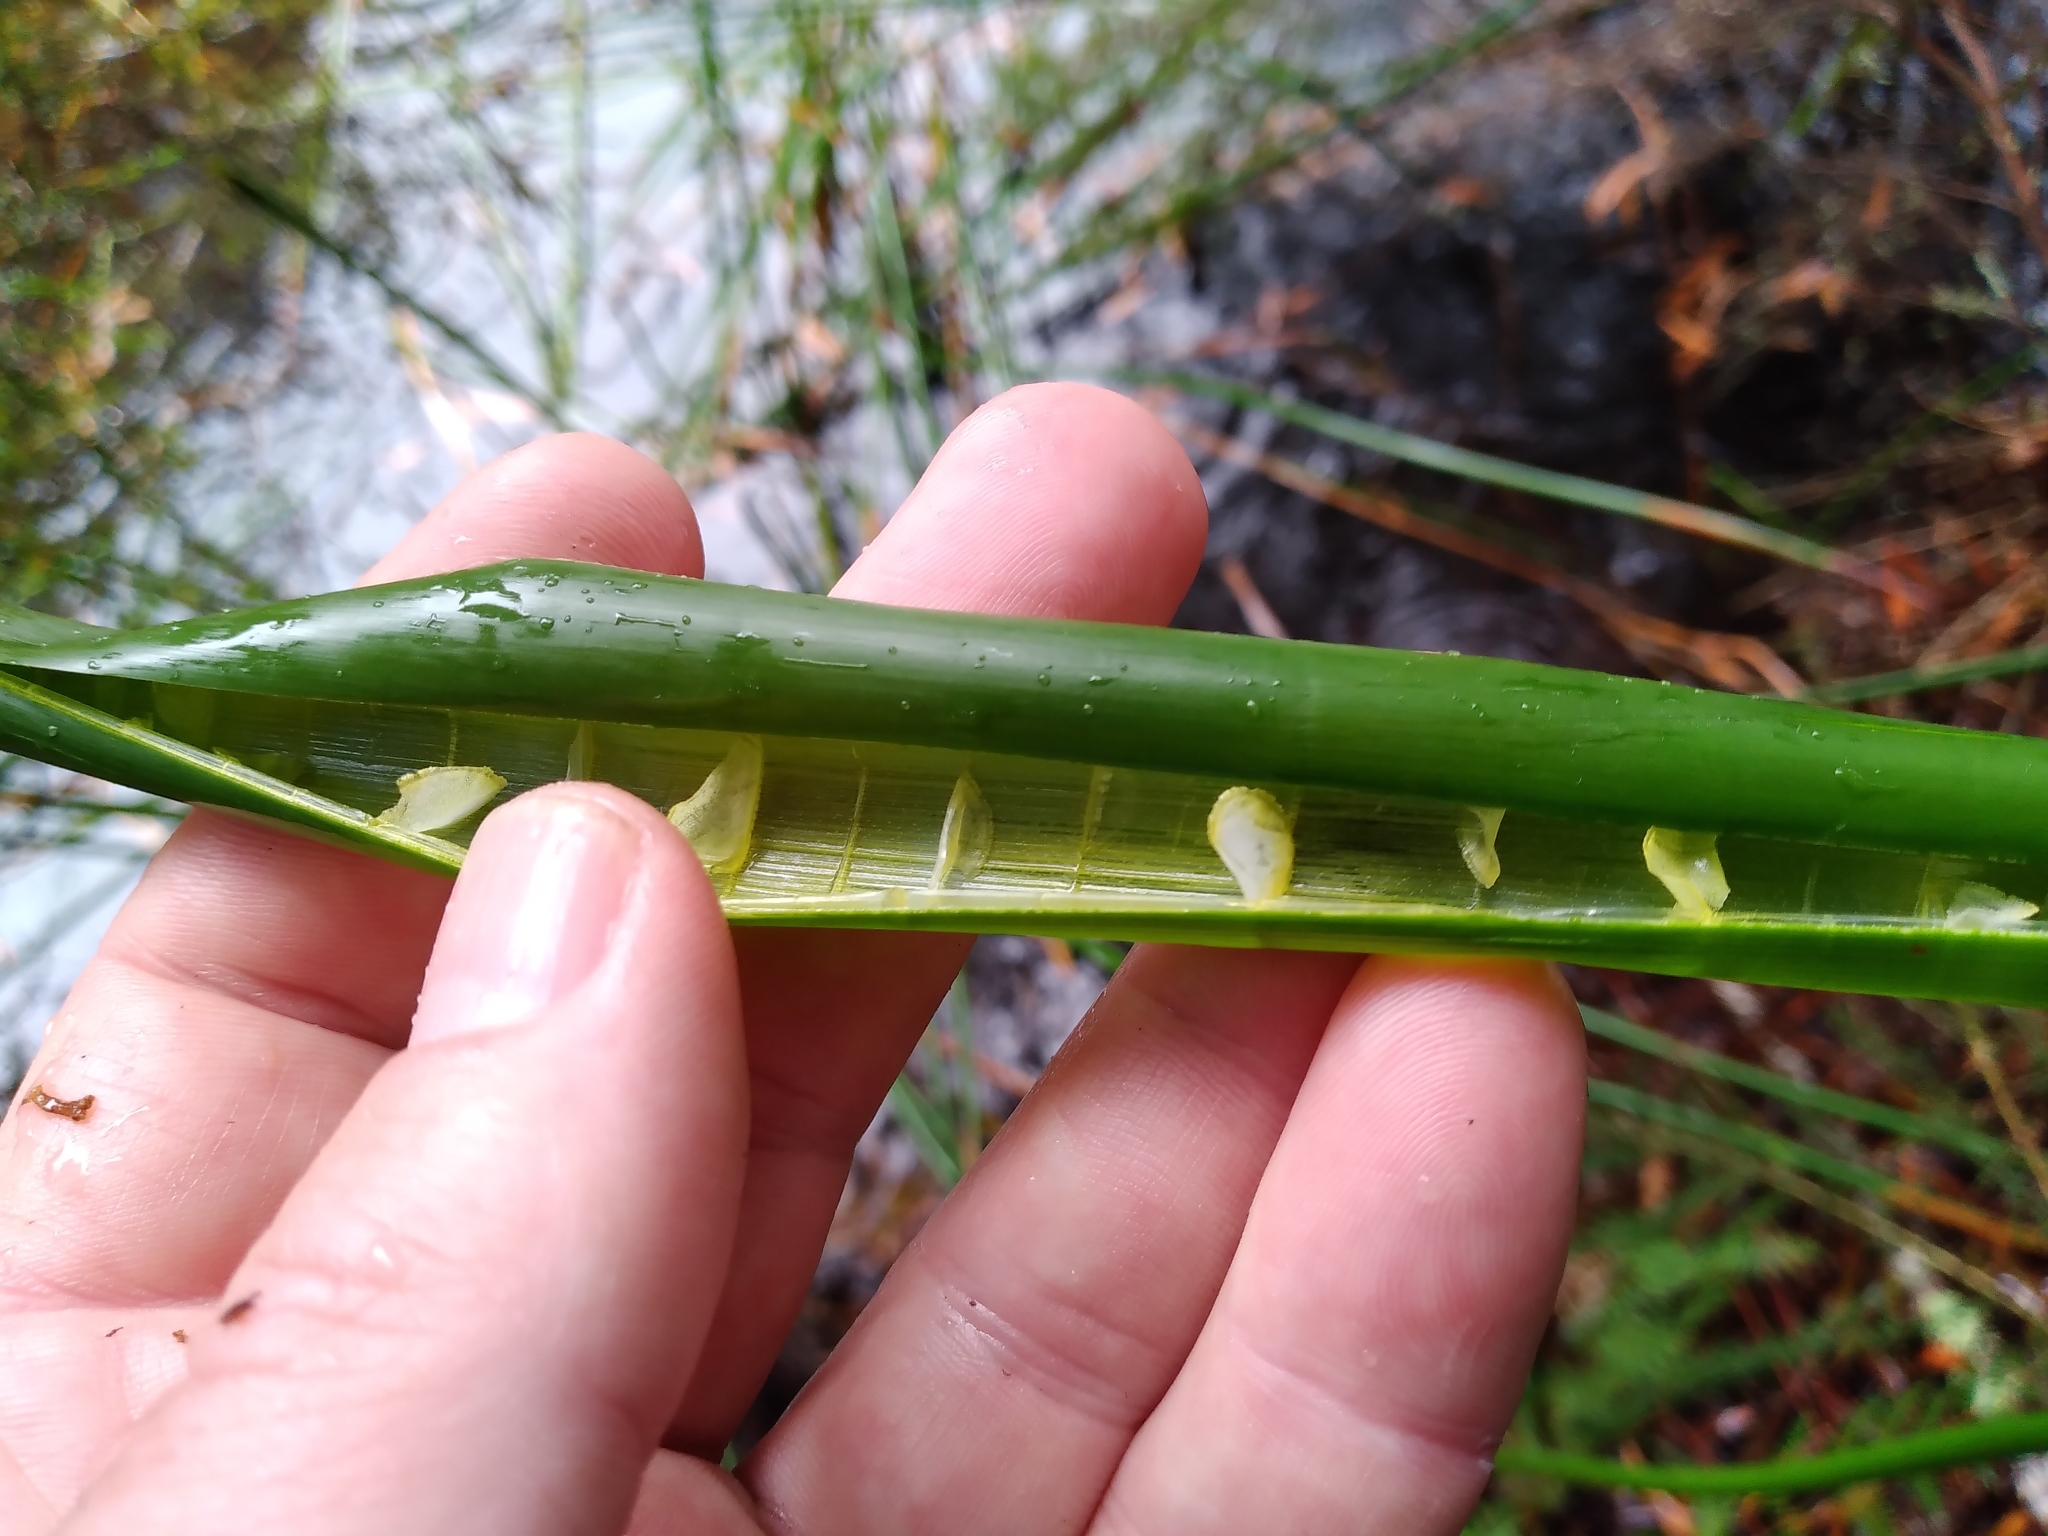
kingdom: Plantae
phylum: Tracheophyta
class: Liliopsida
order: Poales
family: Cyperaceae
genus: Eleocharis
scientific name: Eleocharis sphacelata
